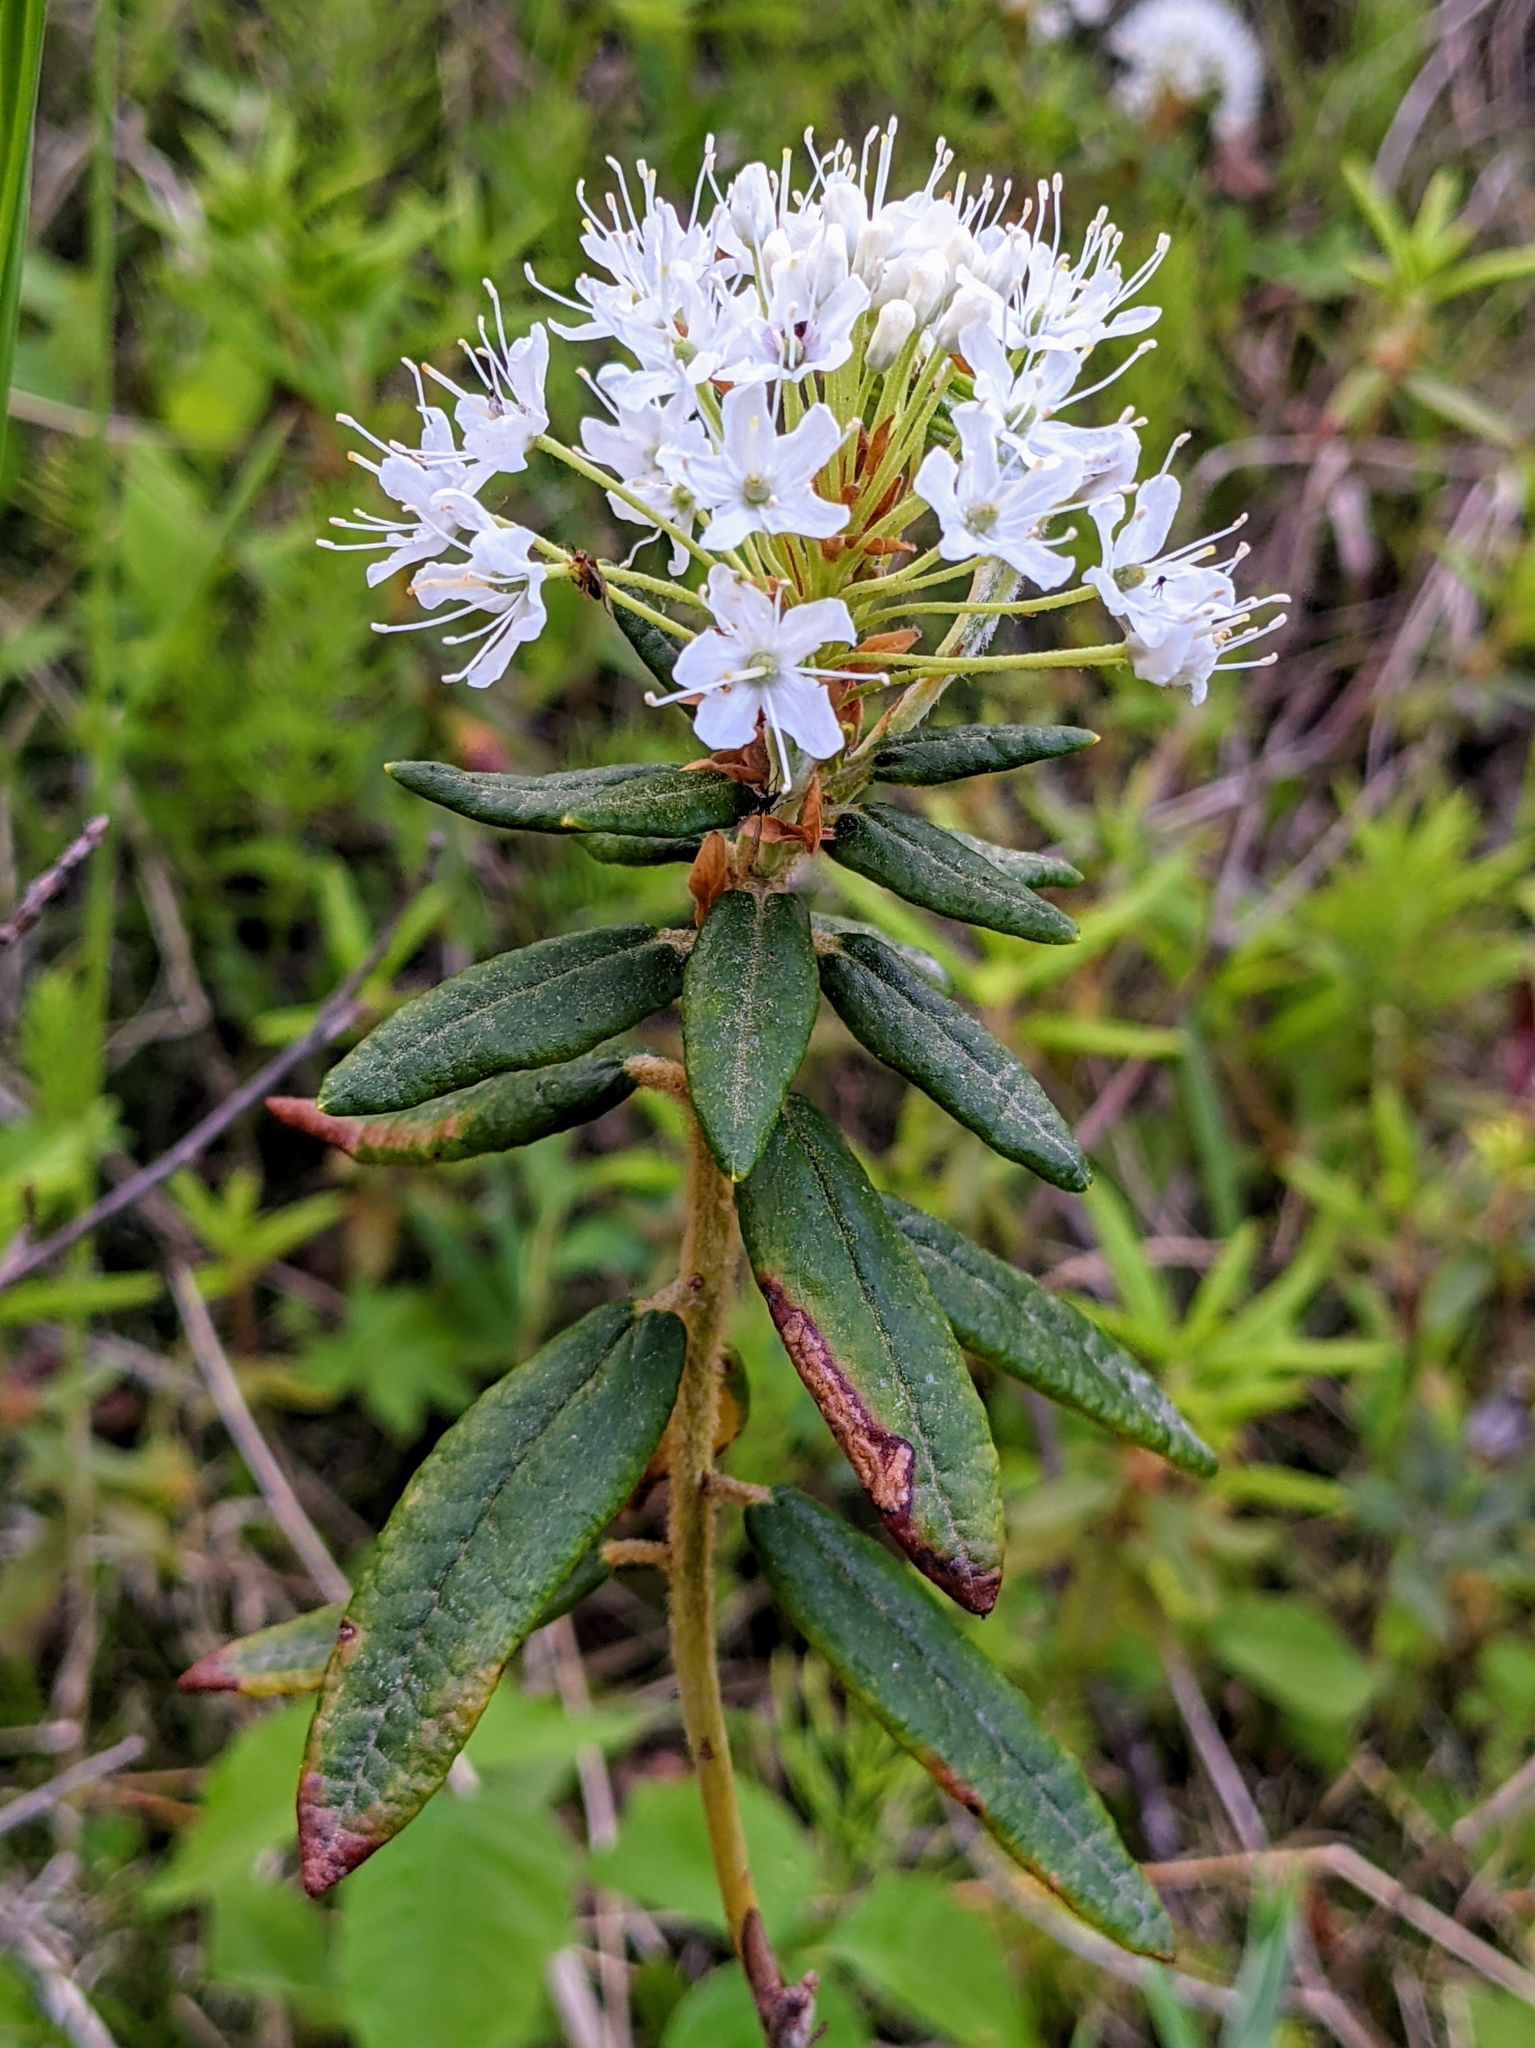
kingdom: Plantae
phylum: Tracheophyta
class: Magnoliopsida
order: Ericales
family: Ericaceae
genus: Rhododendron
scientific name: Rhododendron groenlandicum
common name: Bog labrador tea
